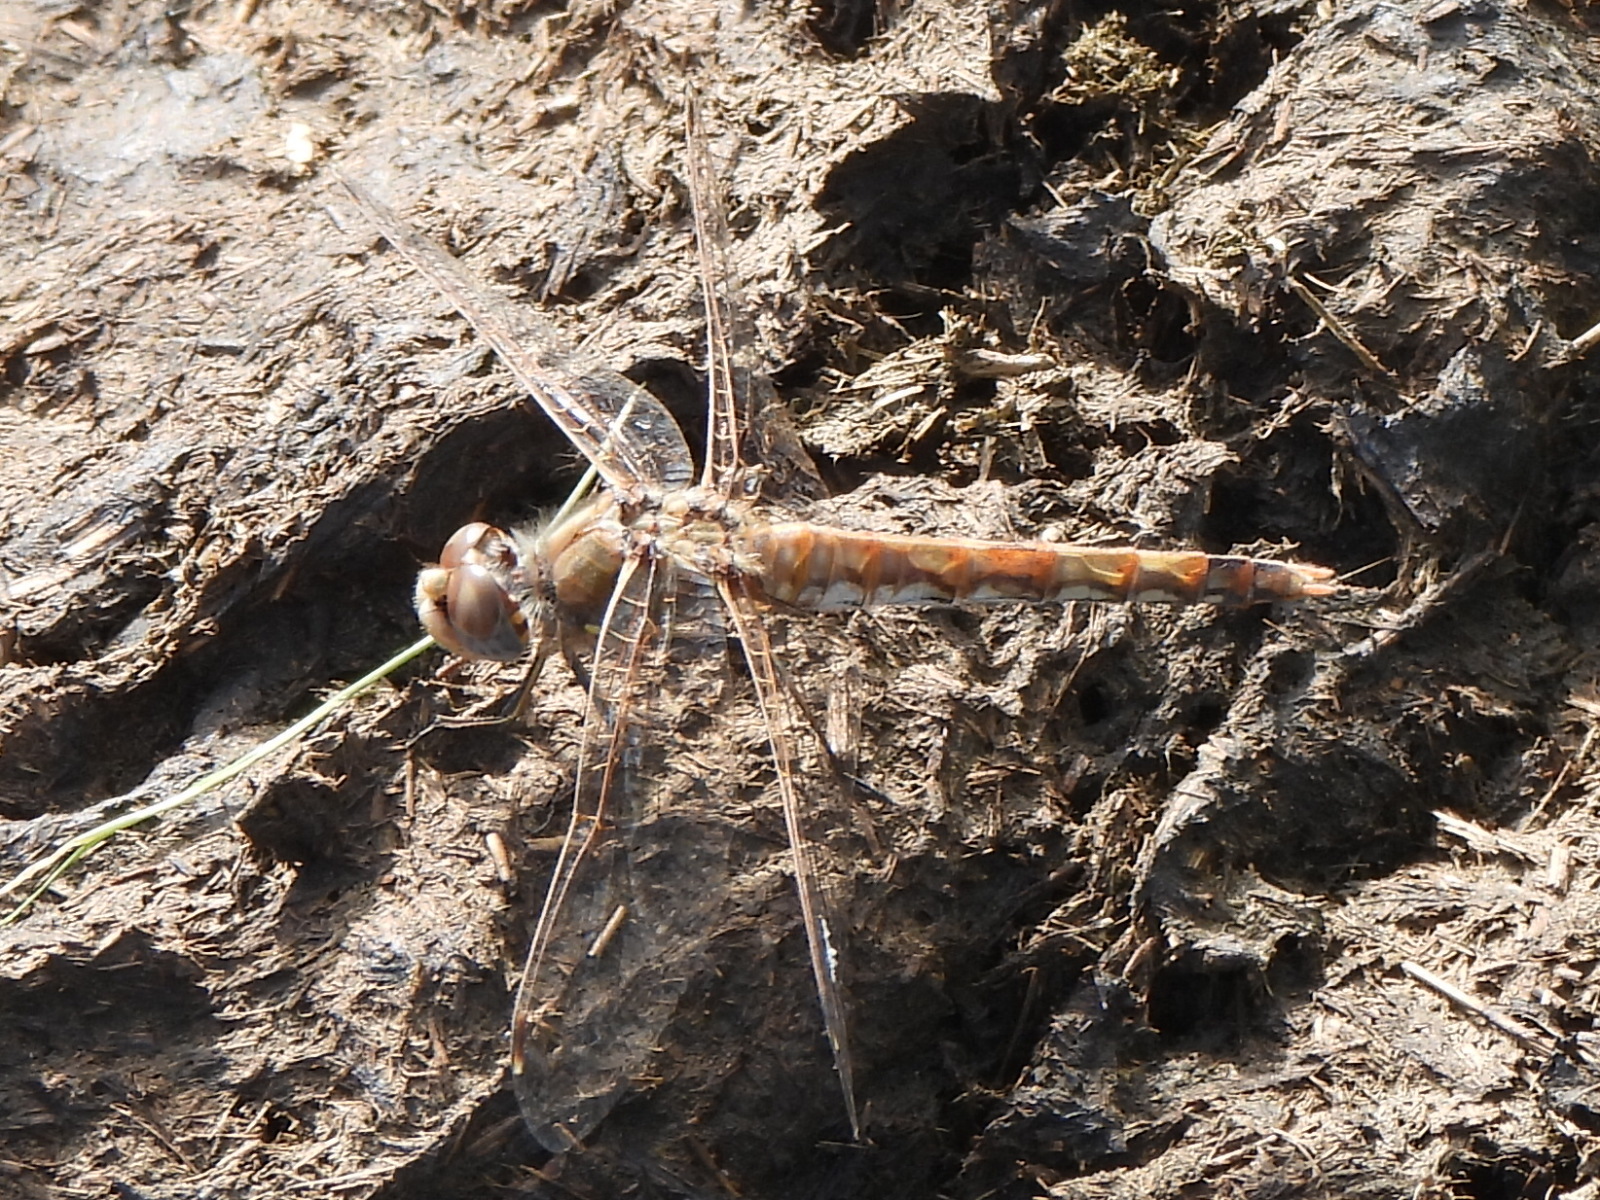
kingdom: Animalia
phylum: Arthropoda
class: Insecta
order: Odonata
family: Libellulidae
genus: Sympetrum
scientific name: Sympetrum corruptum
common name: Variegated meadowhawk
